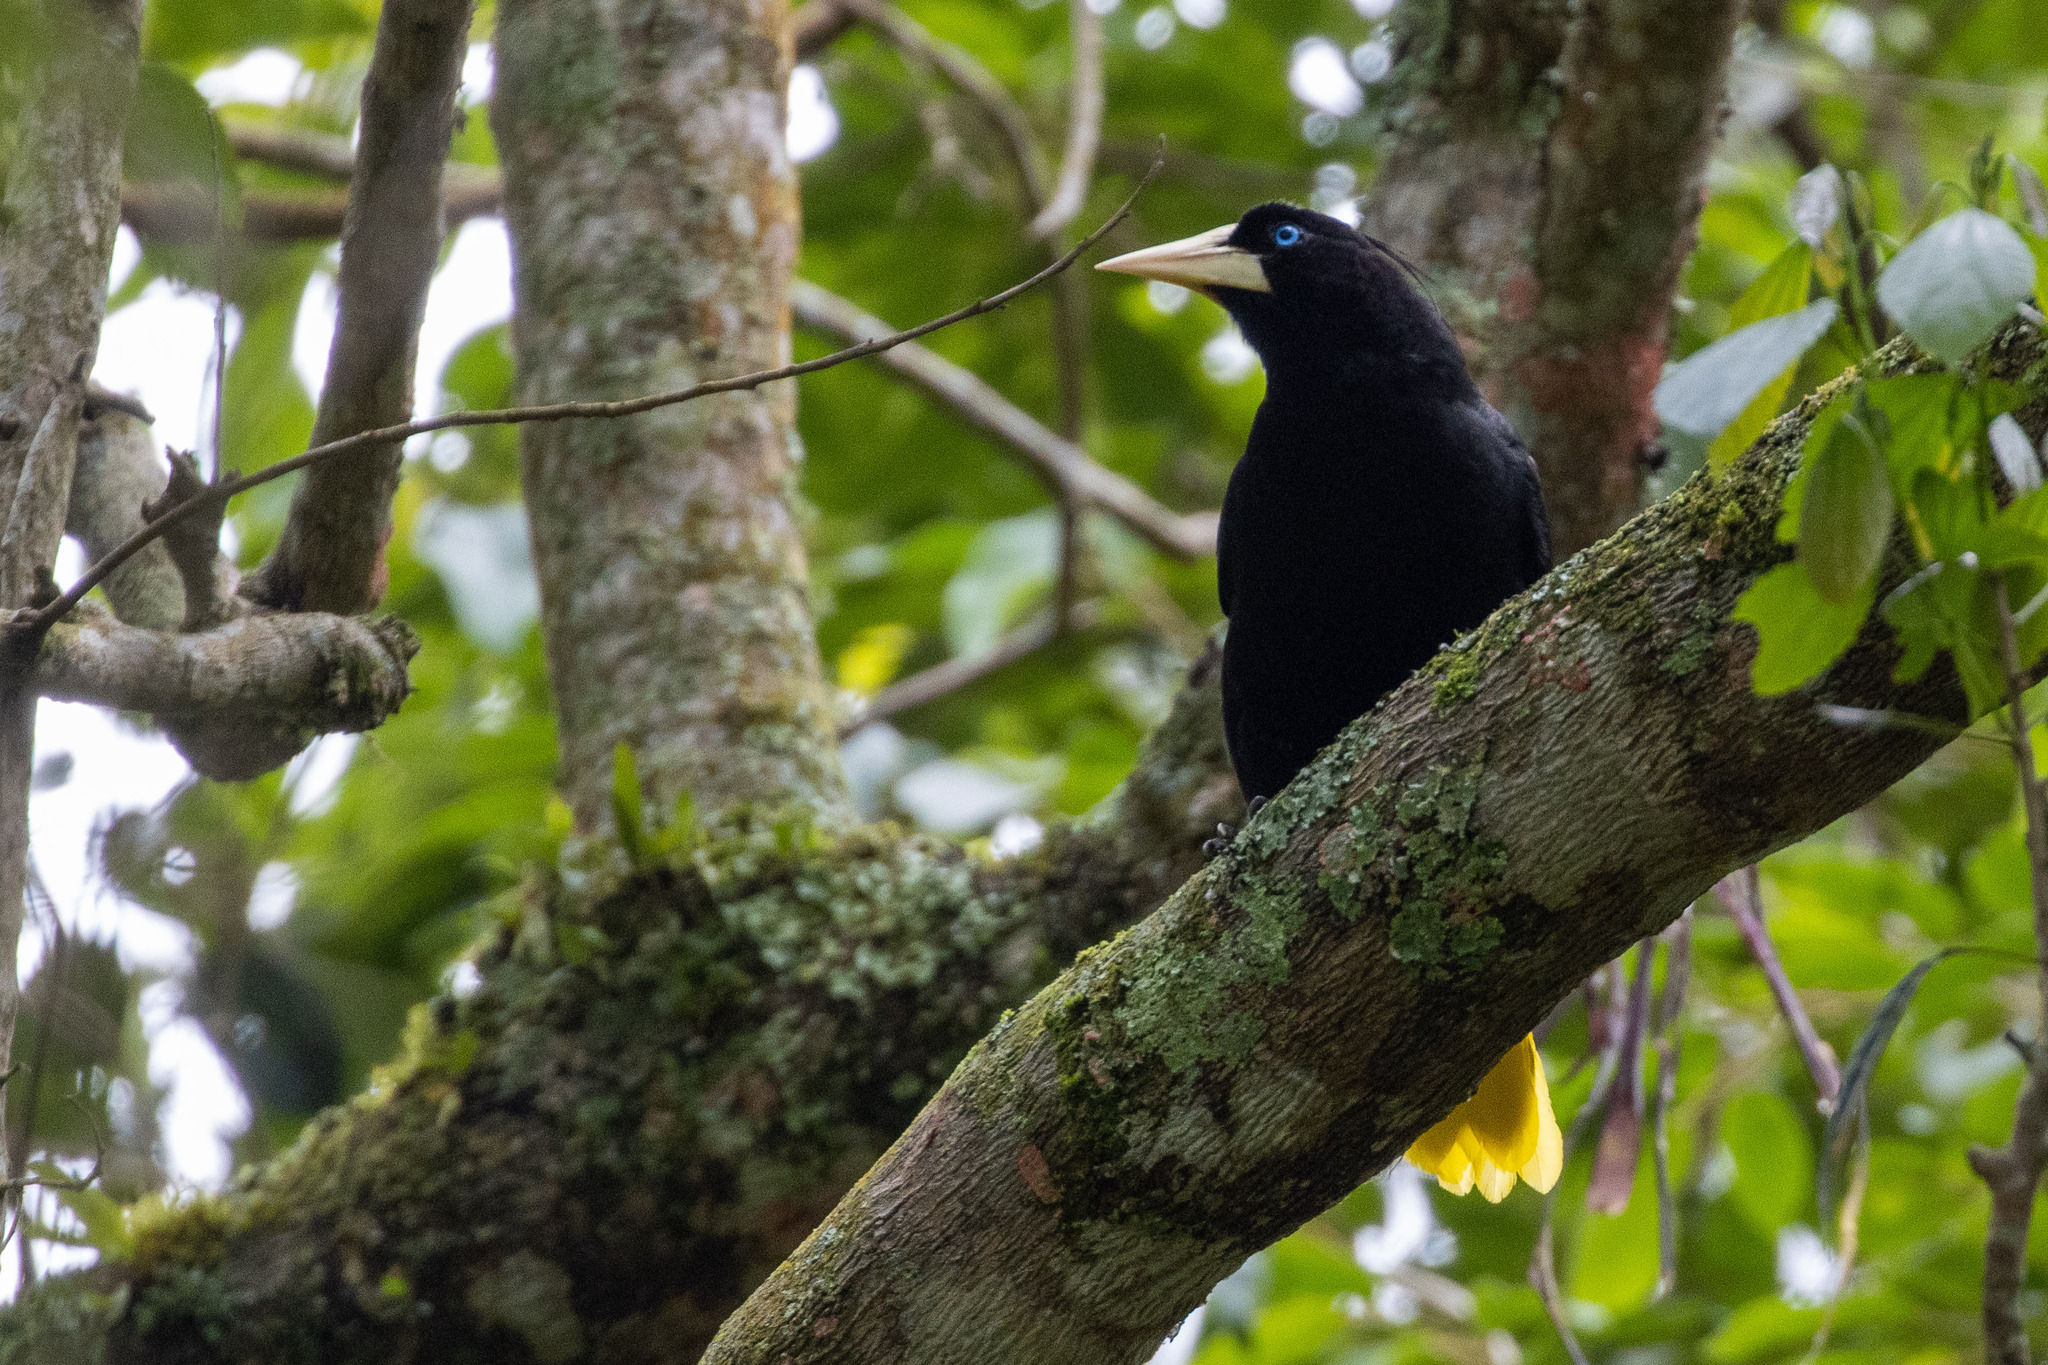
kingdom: Animalia
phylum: Chordata
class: Aves
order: Passeriformes
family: Icteridae
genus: Psarocolius
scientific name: Psarocolius decumanus
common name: Crested oropendola
